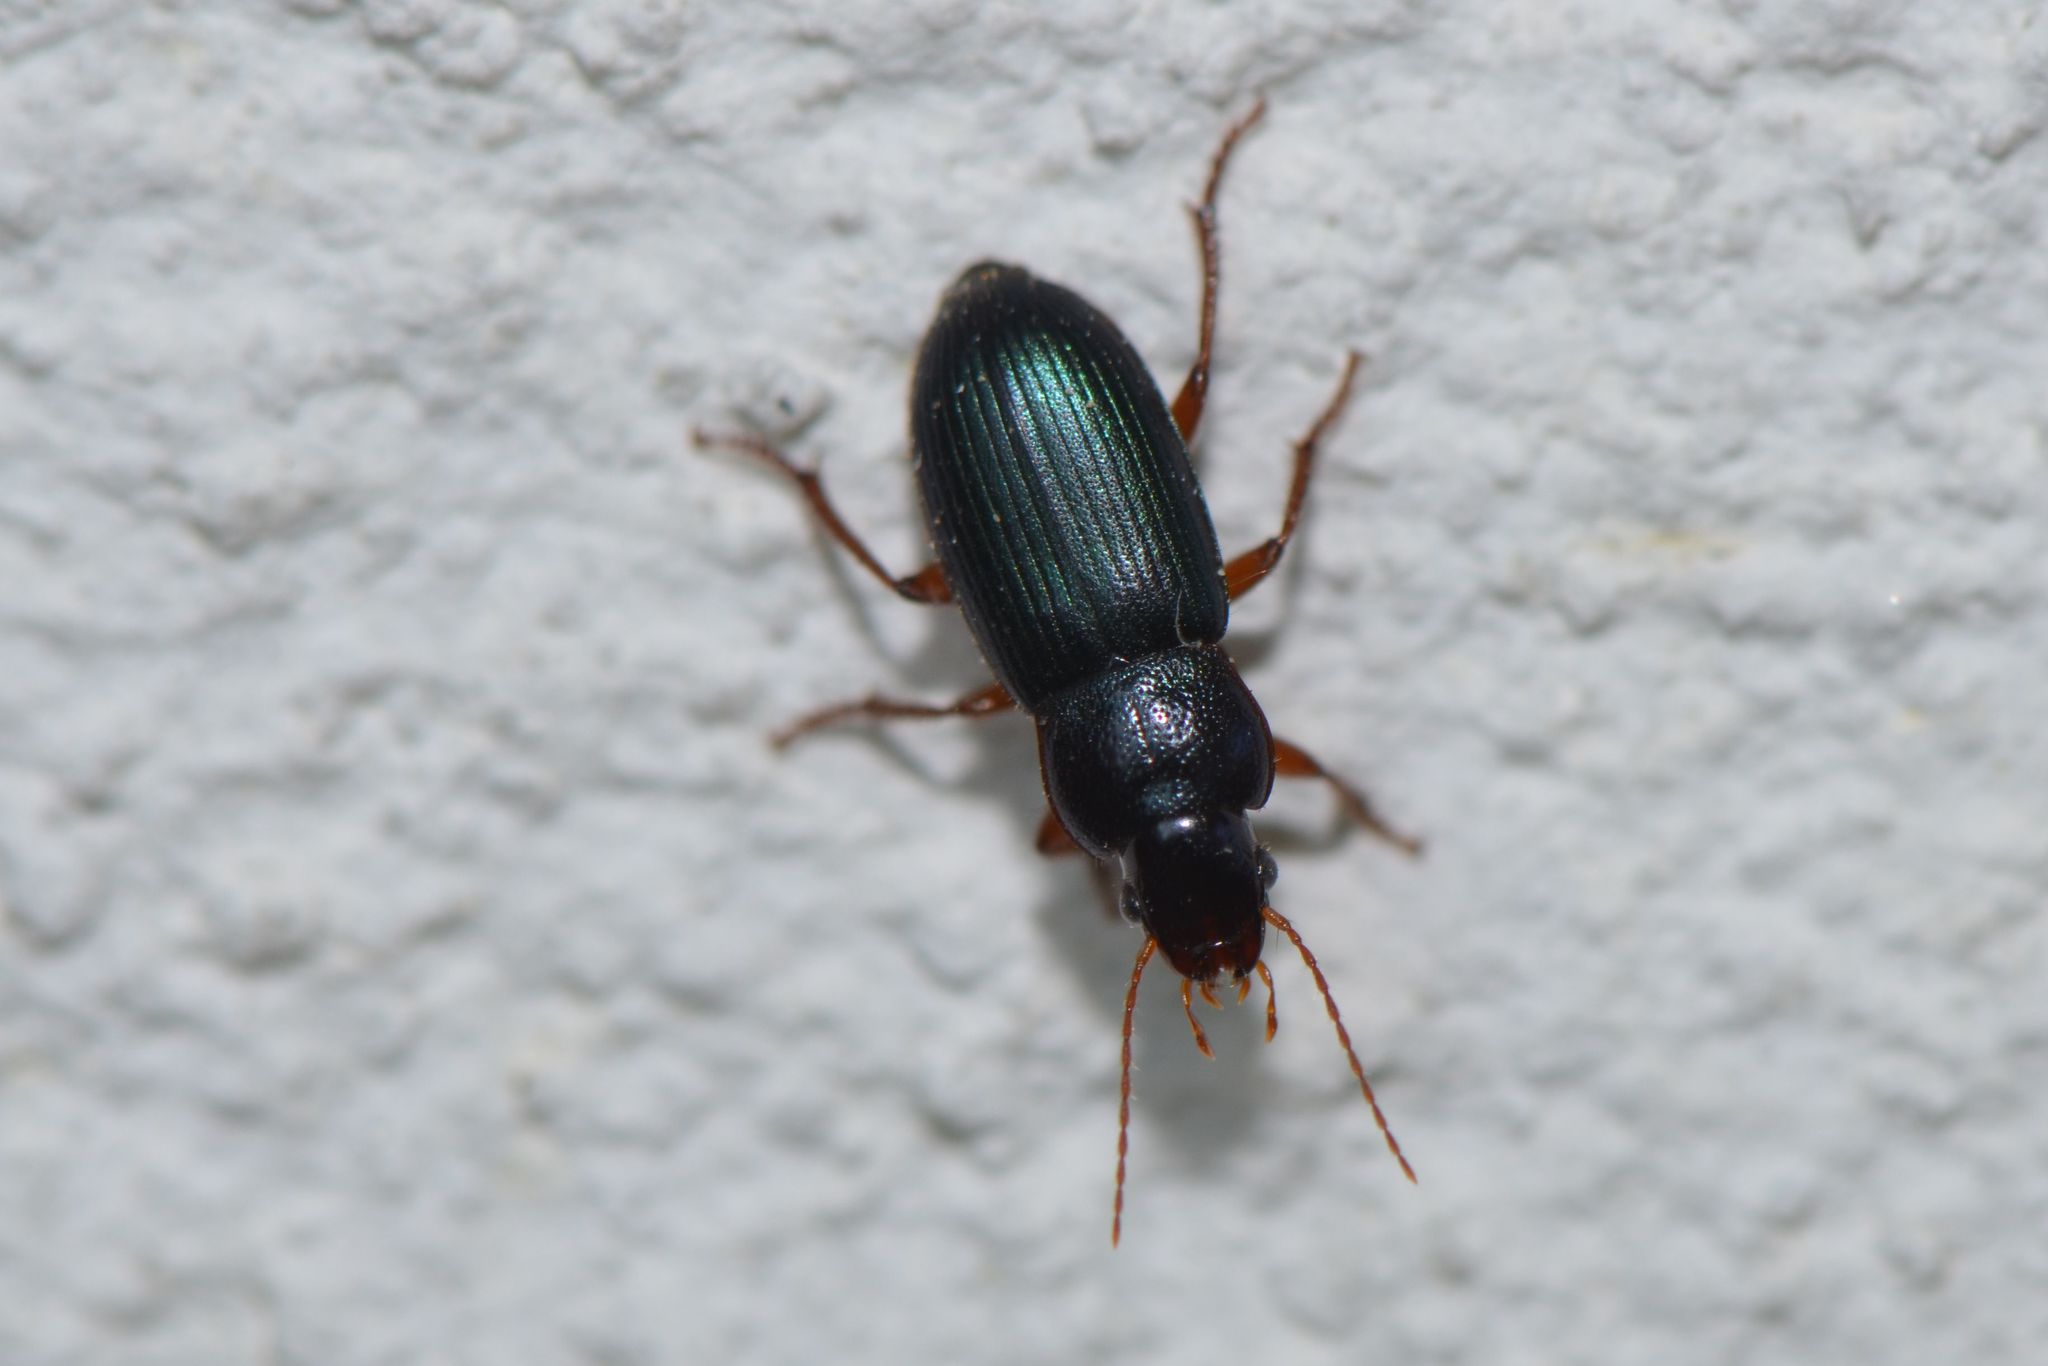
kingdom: Animalia
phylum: Arthropoda
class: Insecta
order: Coleoptera
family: Carabidae
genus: Ophonus
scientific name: Ophonus laticollis
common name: Set-aside downy-back
